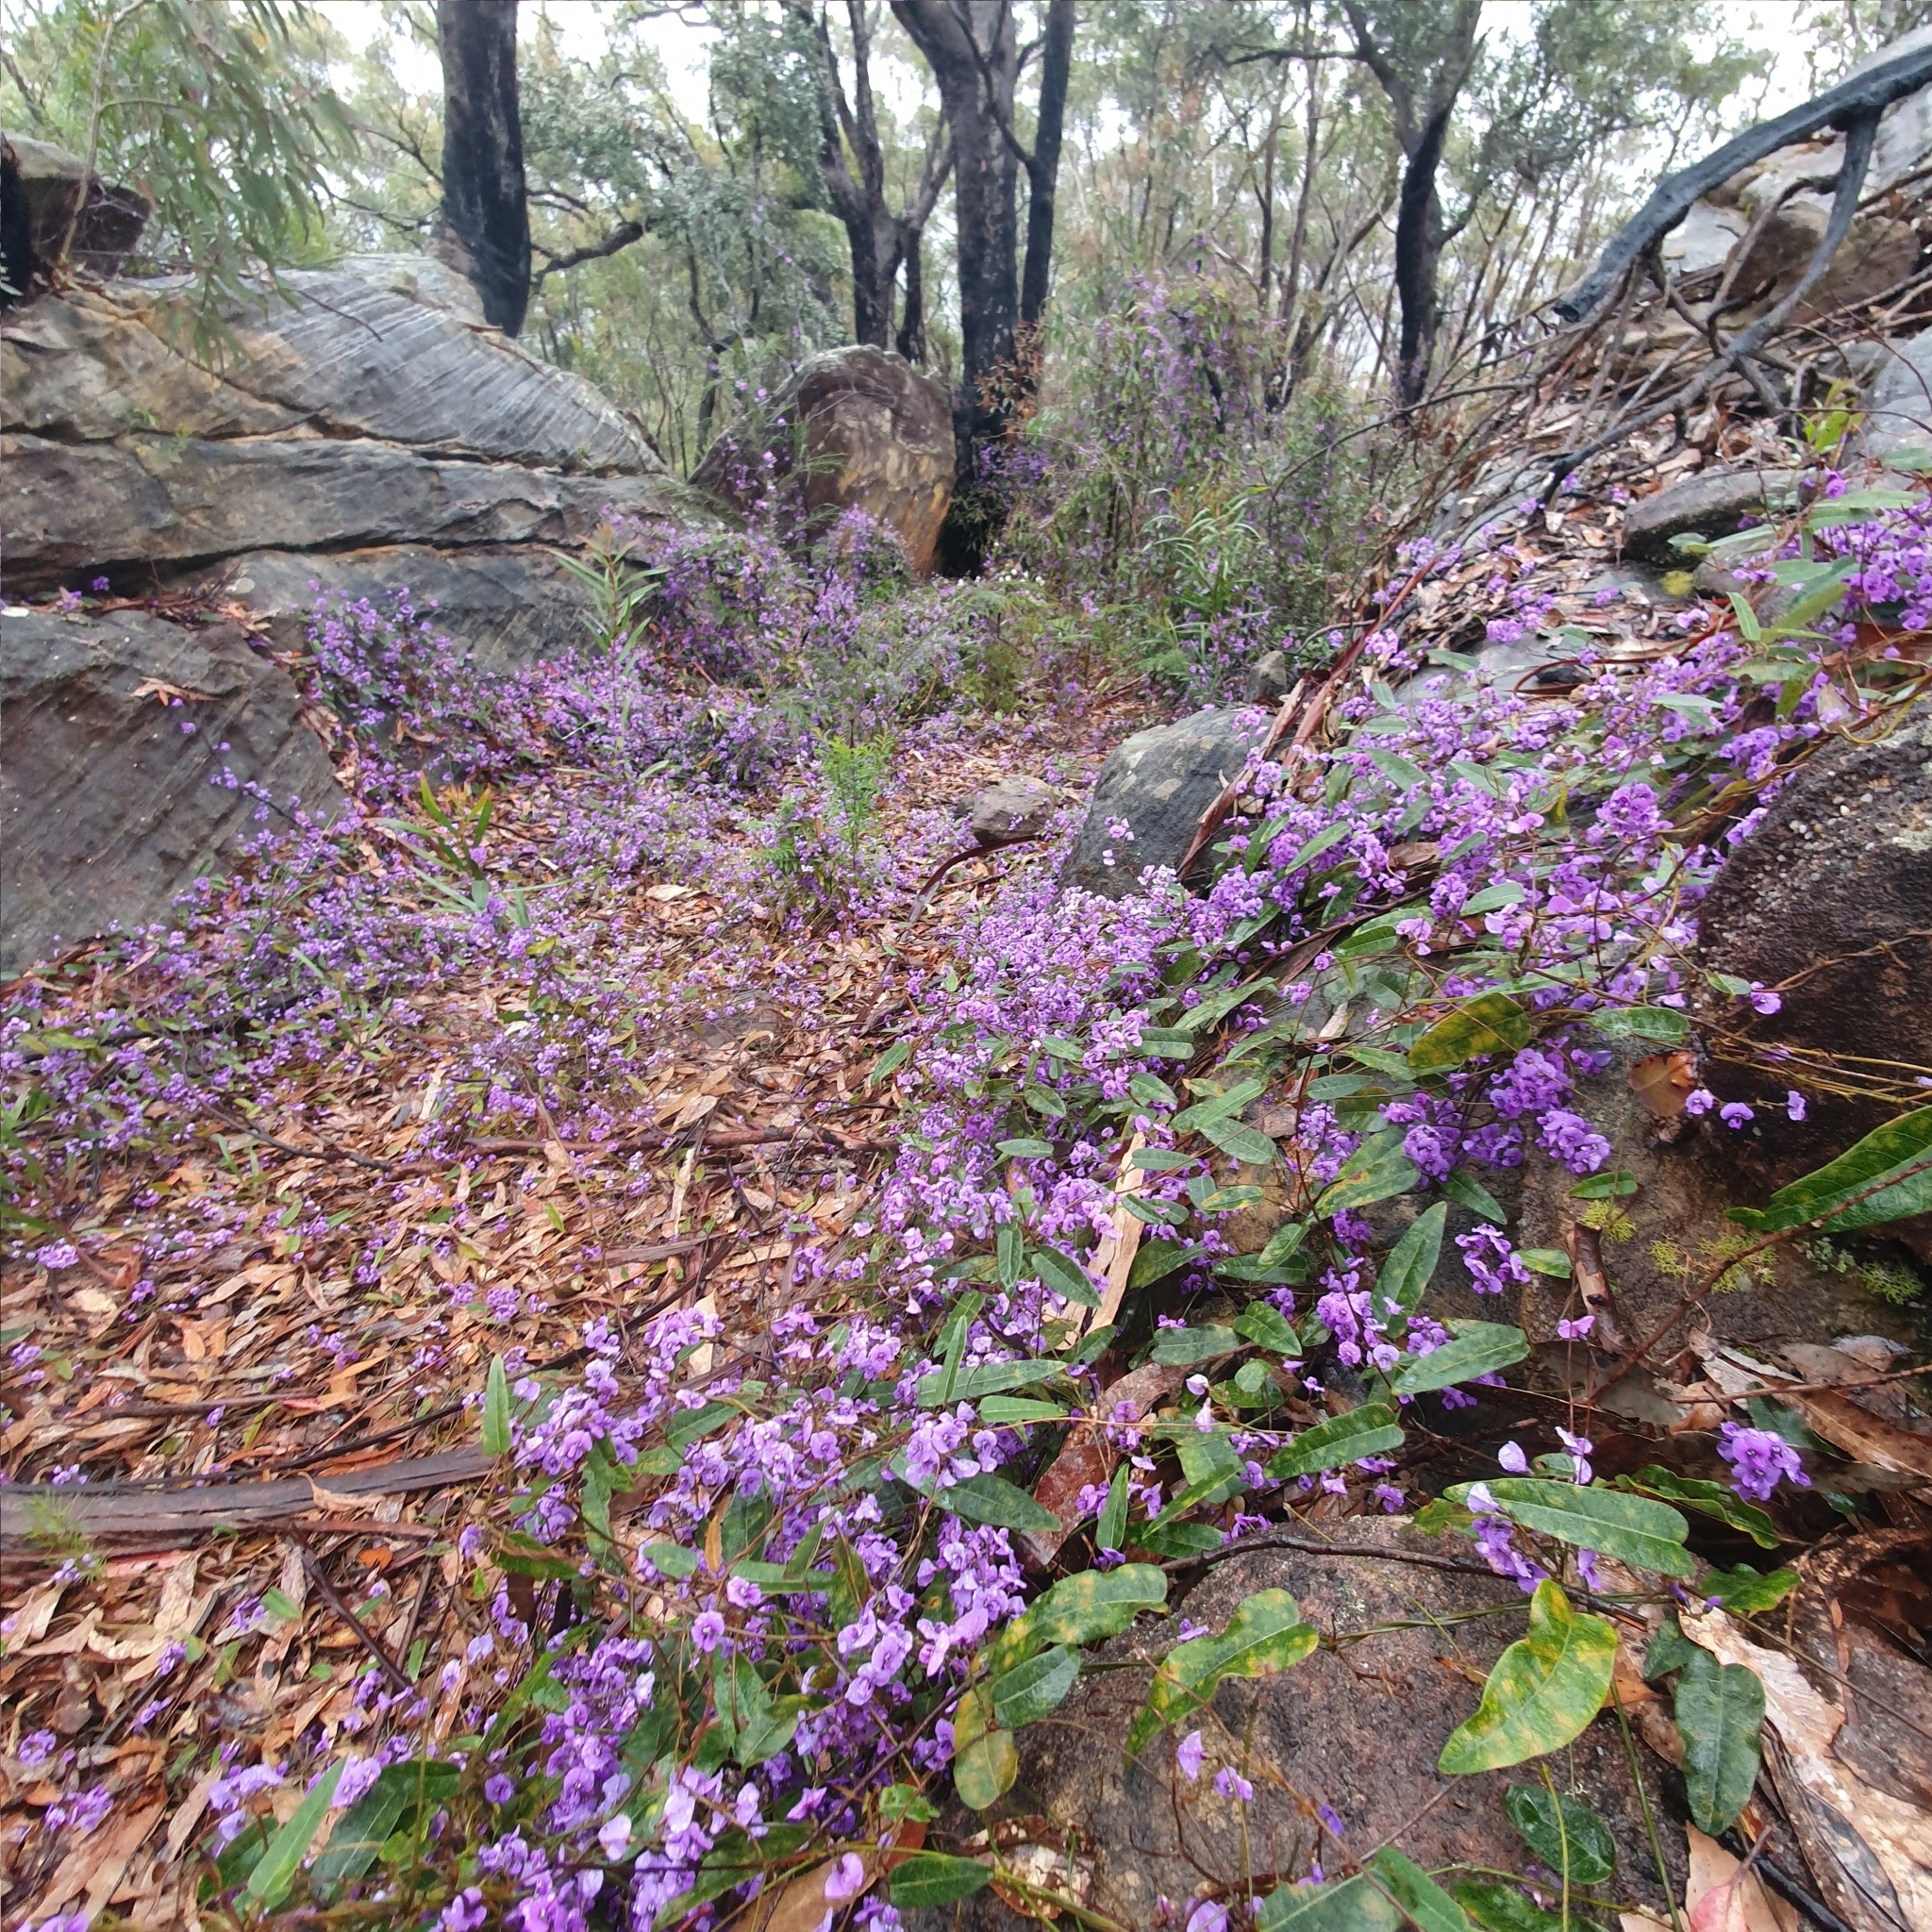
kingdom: Plantae
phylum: Tracheophyta
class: Magnoliopsida
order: Fabales
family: Fabaceae
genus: Hardenbergia
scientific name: Hardenbergia violacea
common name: Coral-pea
